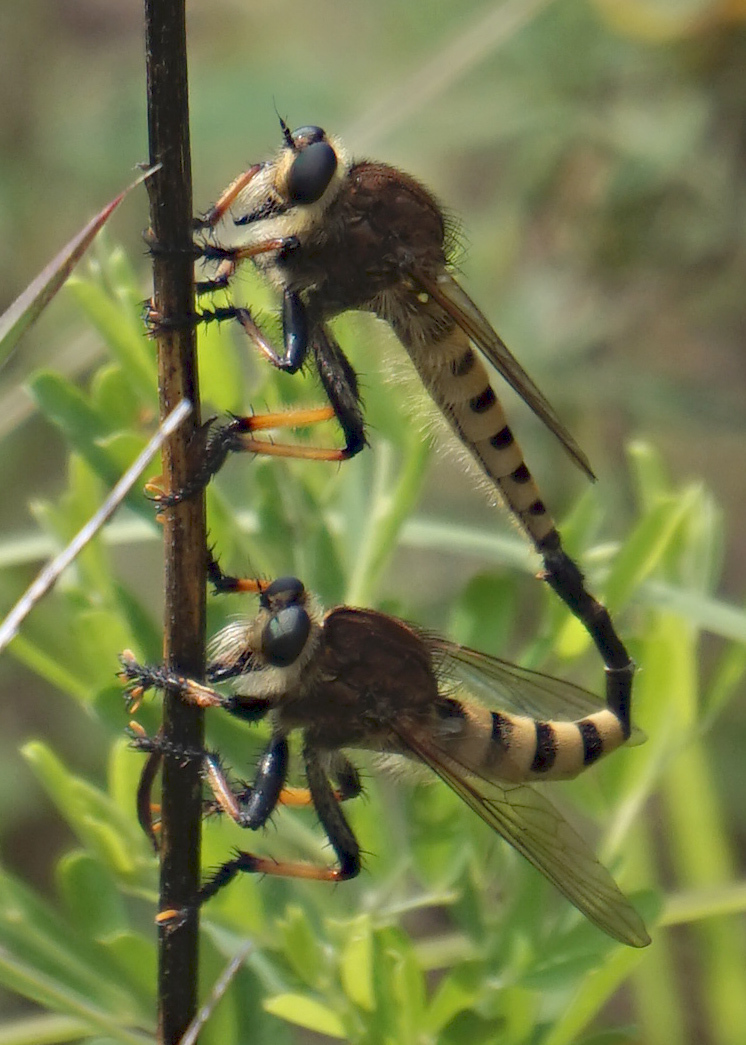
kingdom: Animalia
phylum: Arthropoda
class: Insecta
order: Diptera
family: Asilidae
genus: Promachus
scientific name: Promachus rufipes
